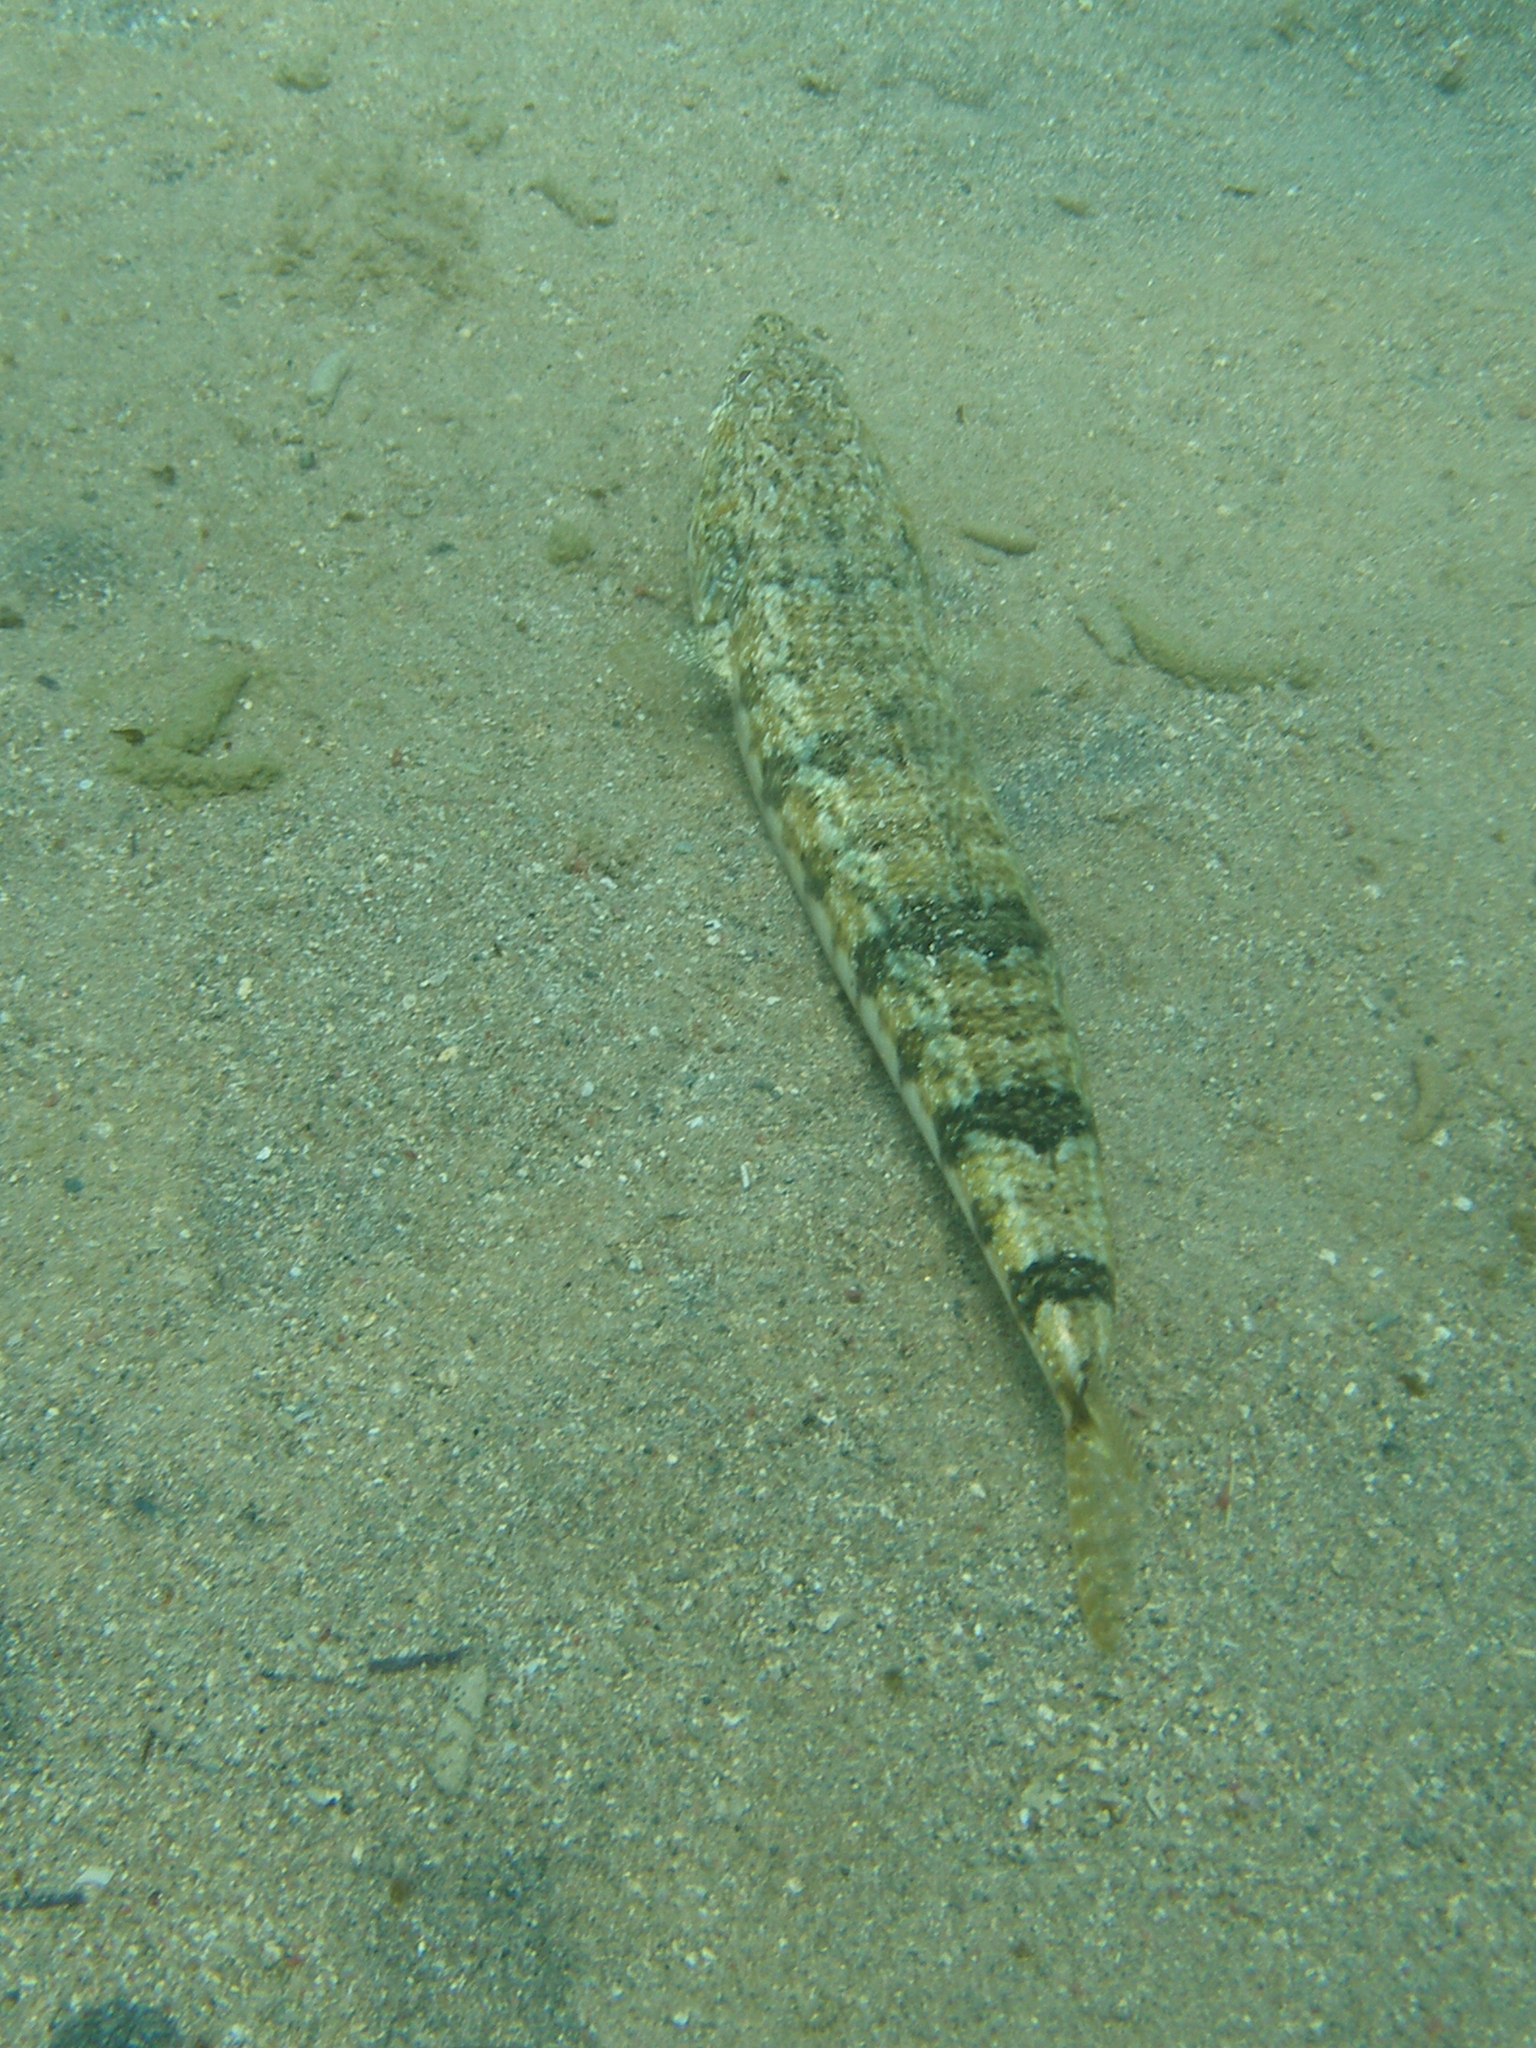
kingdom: Animalia
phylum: Chordata
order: Aulopiformes
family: Synodontidae
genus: Synodus
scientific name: Synodus dermatogenys
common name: Banded lizardfish
